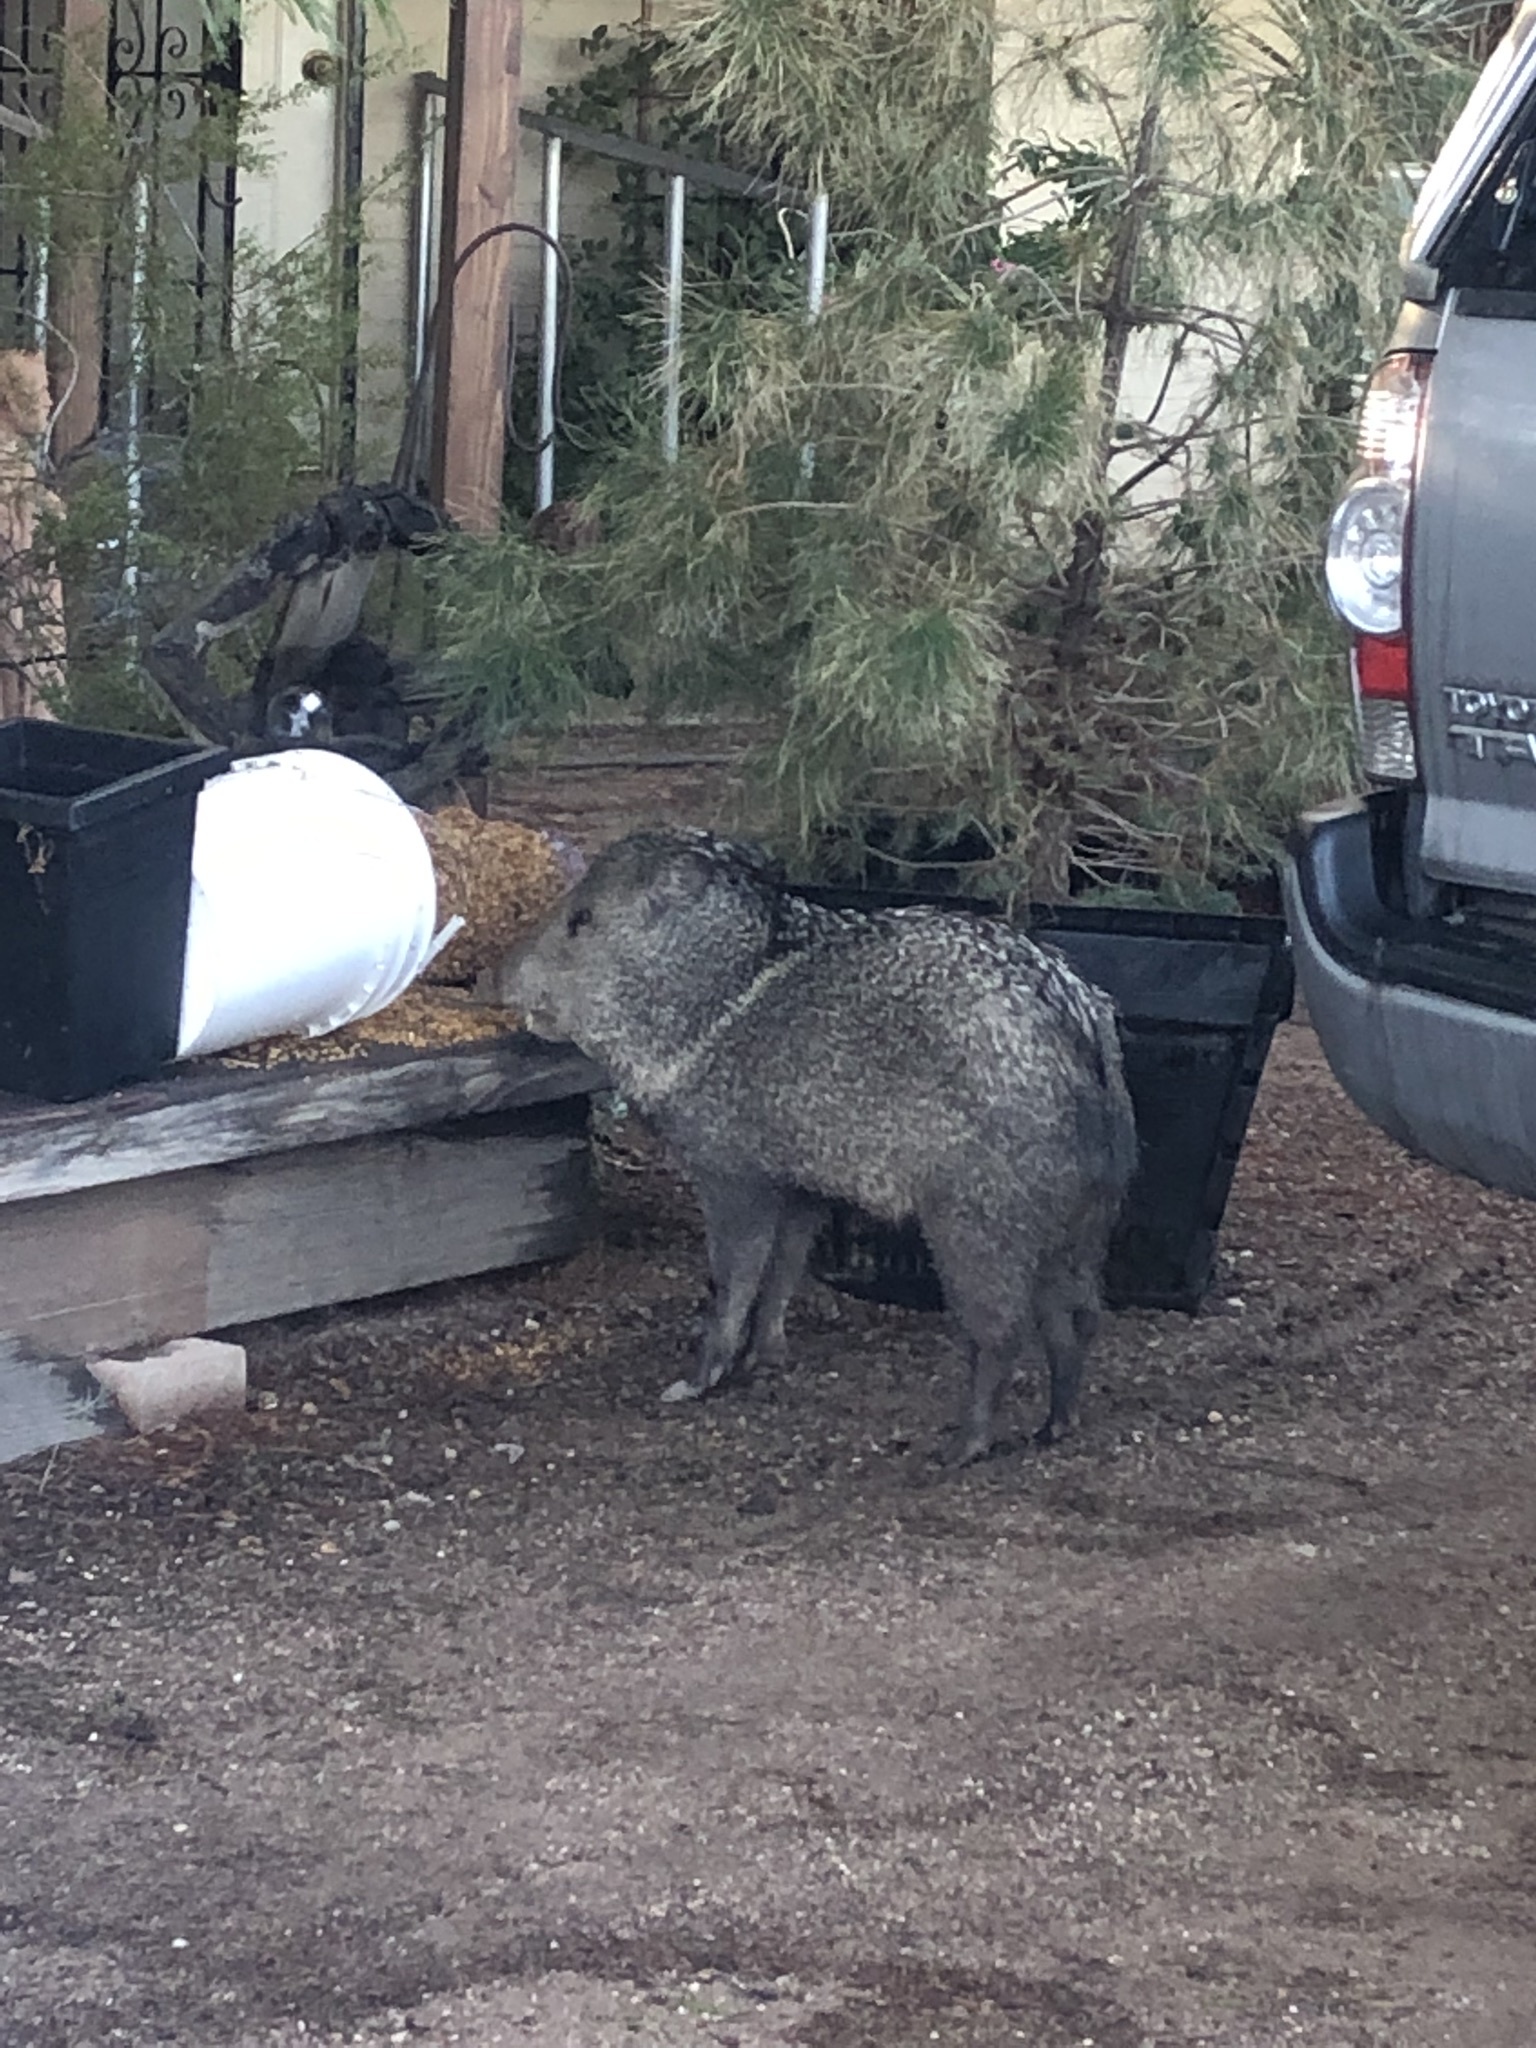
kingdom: Animalia
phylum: Chordata
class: Mammalia
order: Artiodactyla
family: Tayassuidae
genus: Pecari
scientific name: Pecari tajacu
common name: Collared peccary
